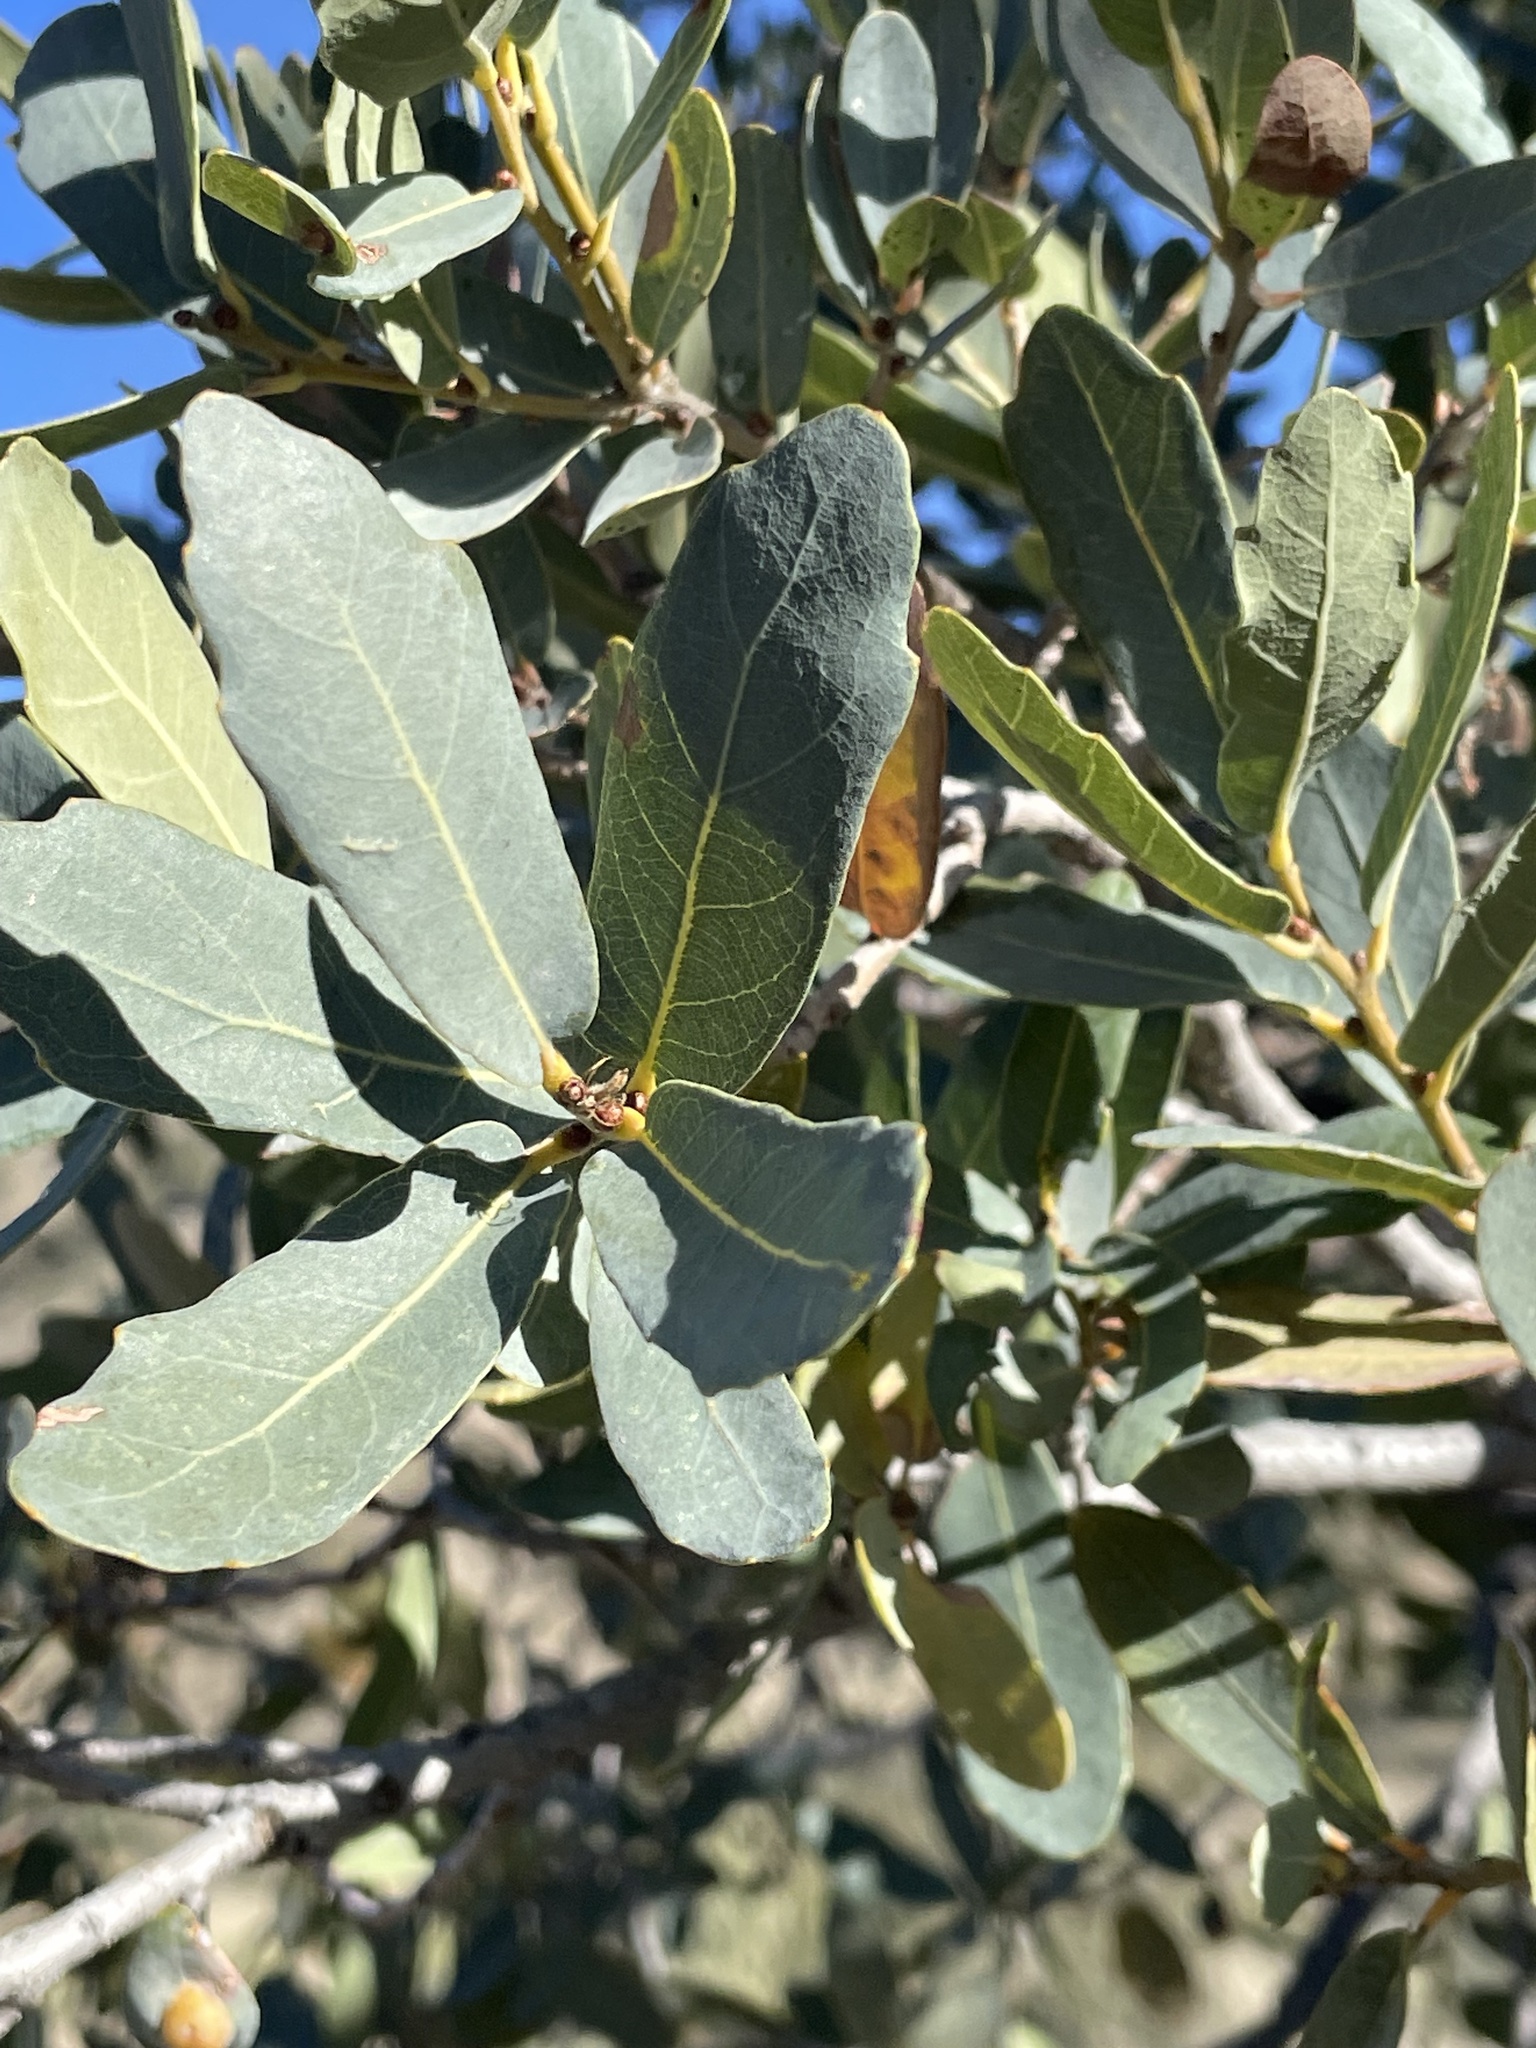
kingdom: Animalia
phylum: Arthropoda
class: Insecta
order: Hymenoptera
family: Cynipidae
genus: Andricus
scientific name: Andricus
